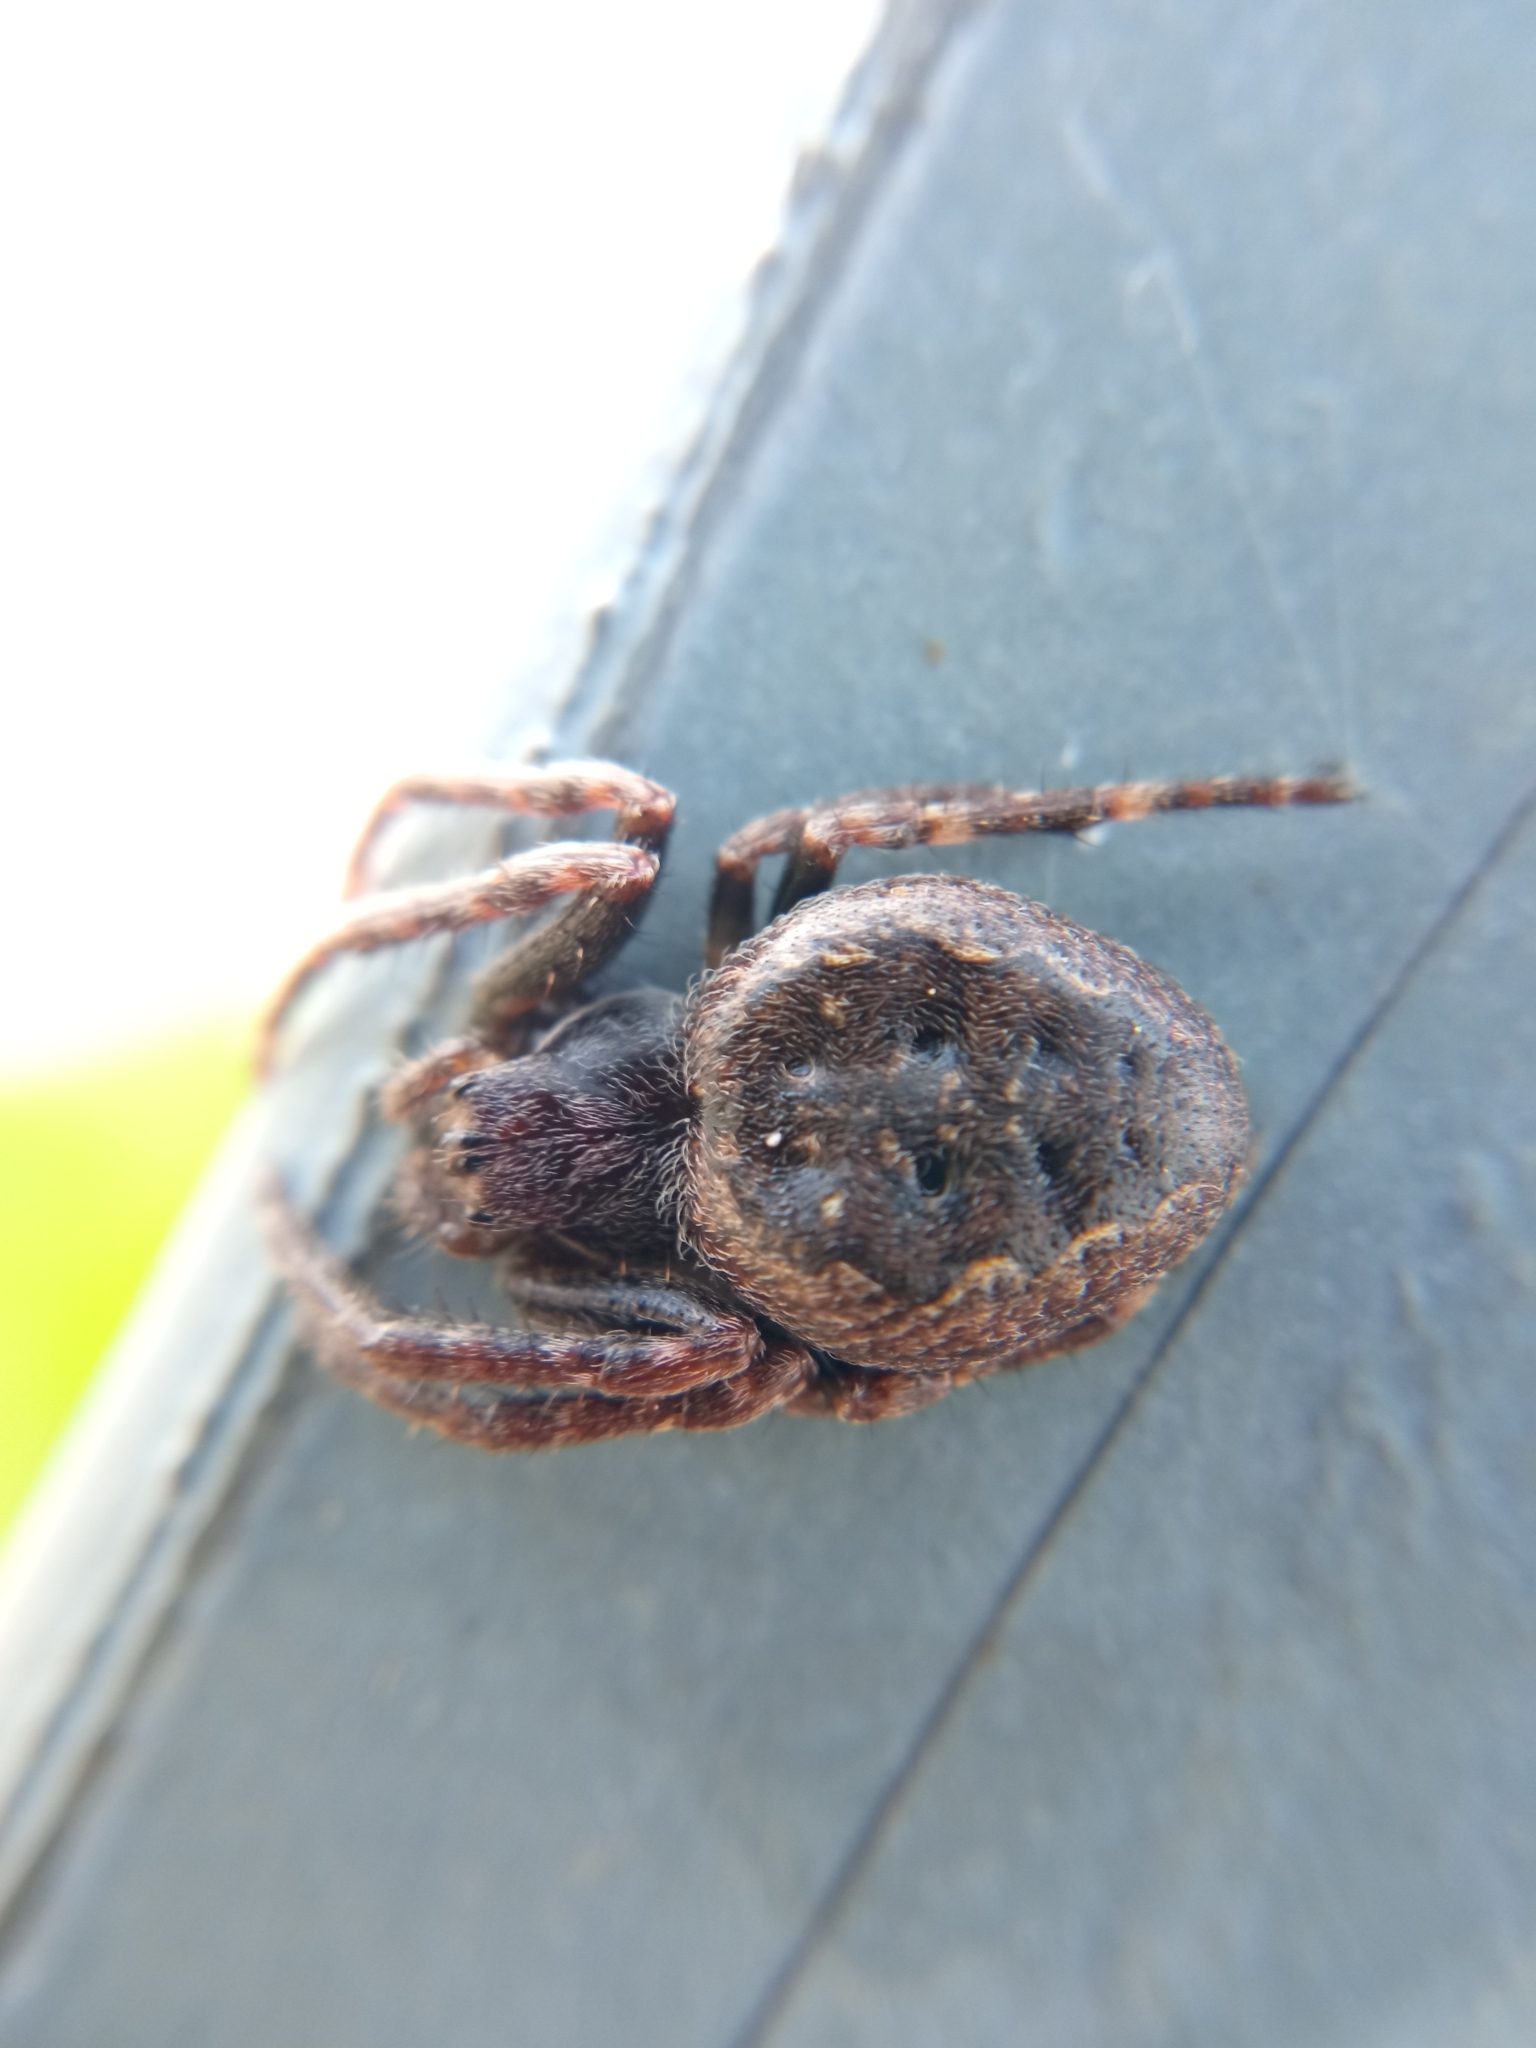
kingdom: Animalia
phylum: Arthropoda
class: Arachnida
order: Araneae
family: Araneidae
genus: Nuctenea
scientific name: Nuctenea umbratica
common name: Toad spider
